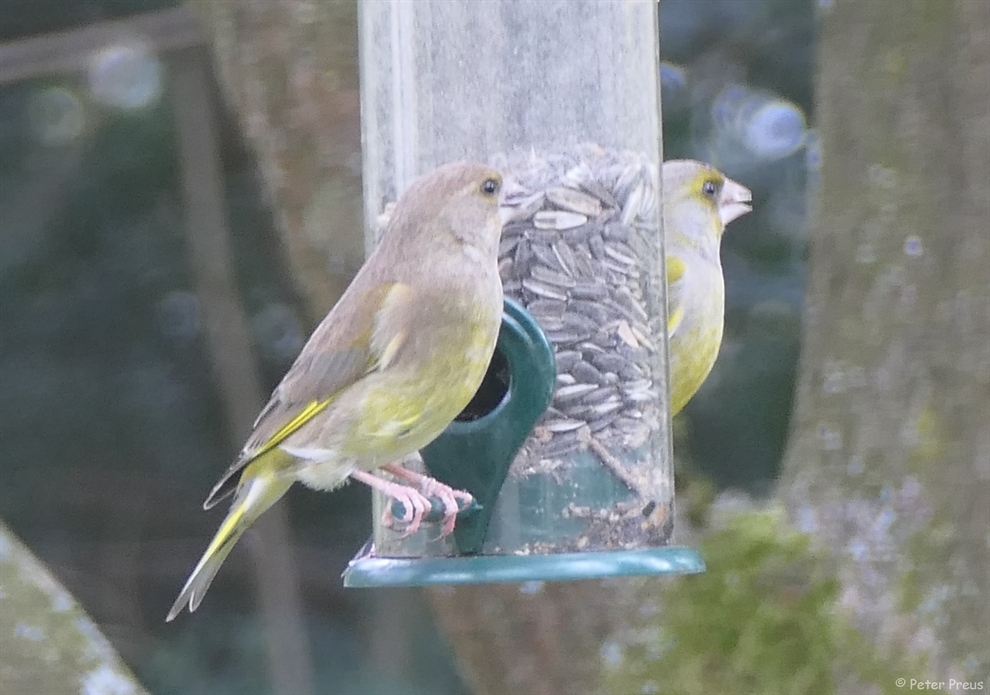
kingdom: Plantae
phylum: Tracheophyta
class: Liliopsida
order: Poales
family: Poaceae
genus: Chloris
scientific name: Chloris chloris
